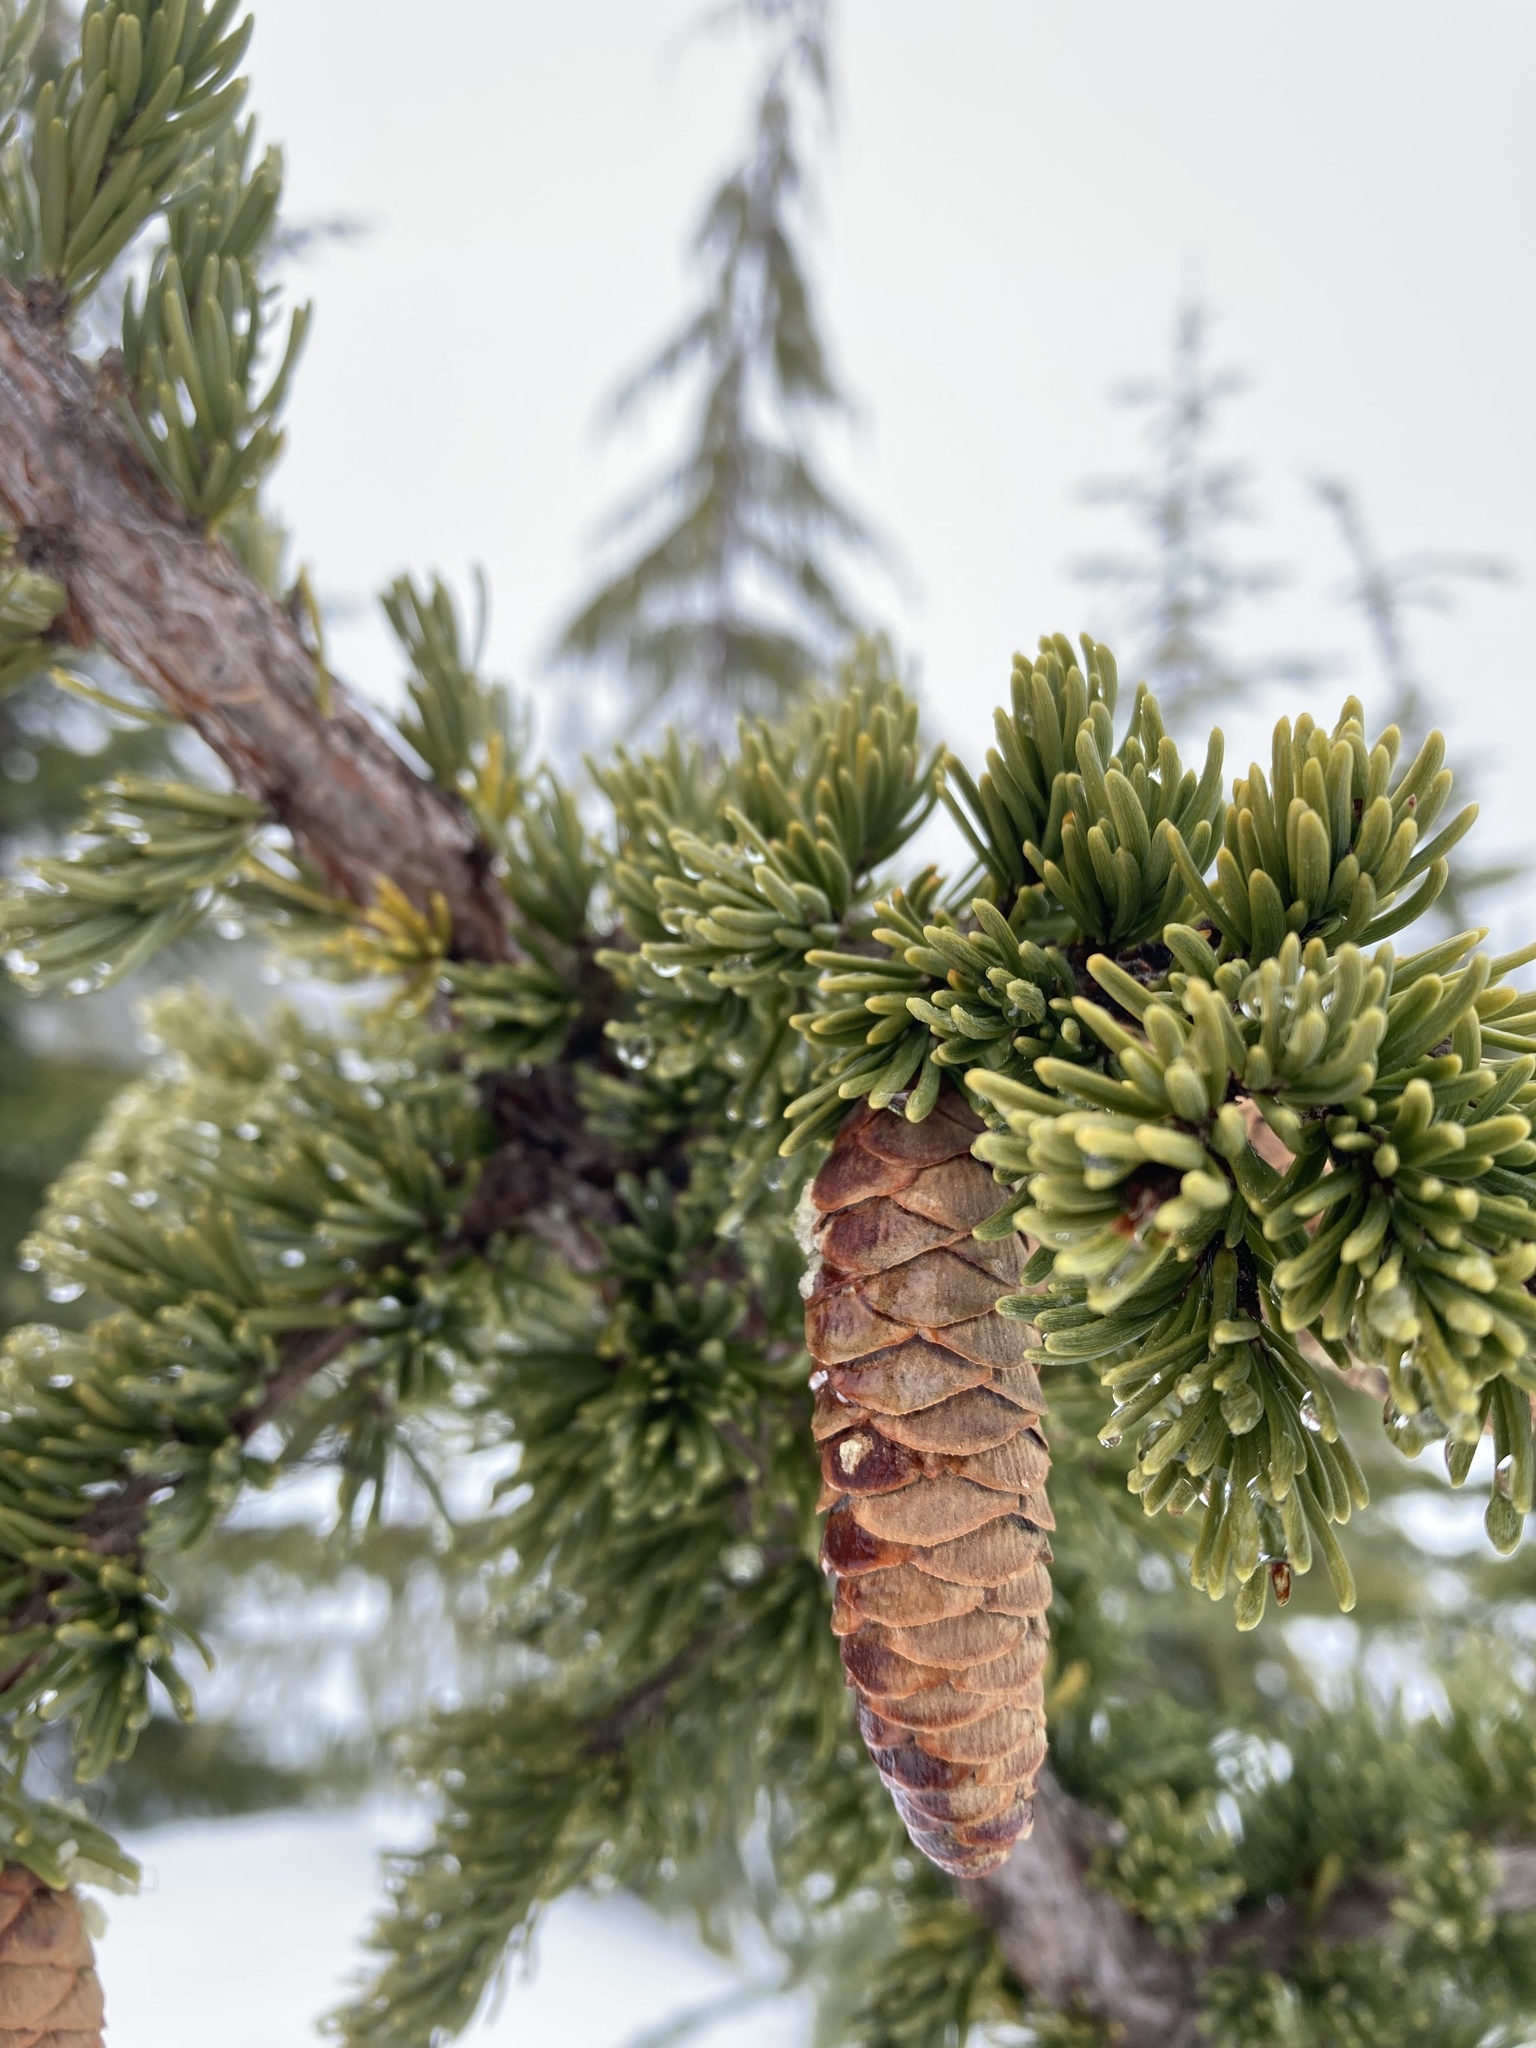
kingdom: Plantae
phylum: Tracheophyta
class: Pinopsida
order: Pinales
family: Pinaceae
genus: Tsuga
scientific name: Tsuga mertensiana
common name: Mountain hemlock
